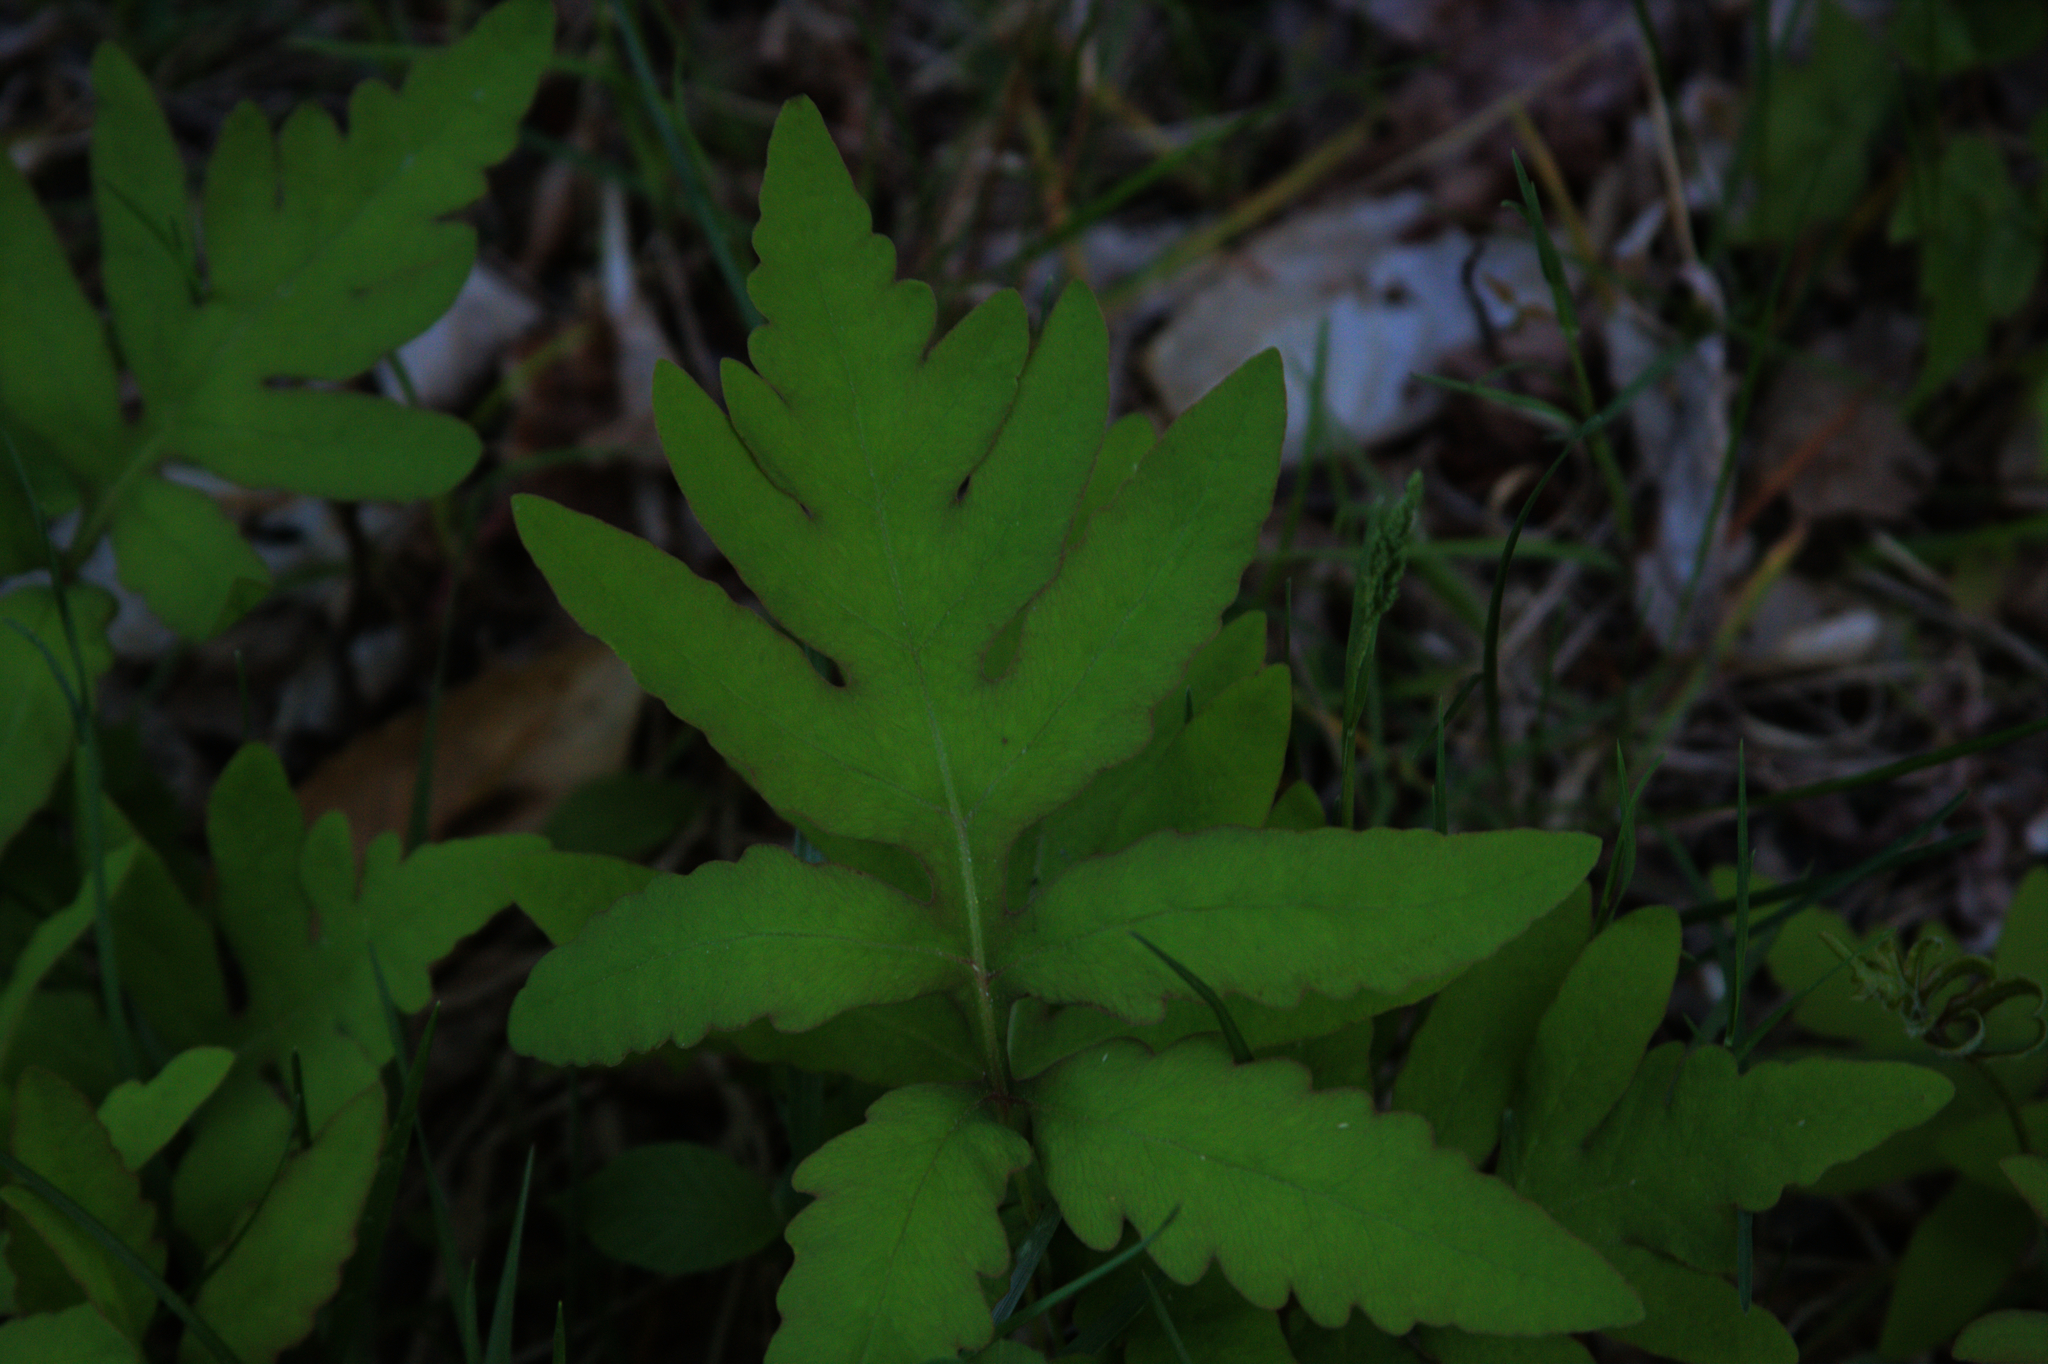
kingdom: Plantae
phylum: Tracheophyta
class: Polypodiopsida
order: Polypodiales
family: Onocleaceae
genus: Onoclea
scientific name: Onoclea sensibilis
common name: Sensitive fern
